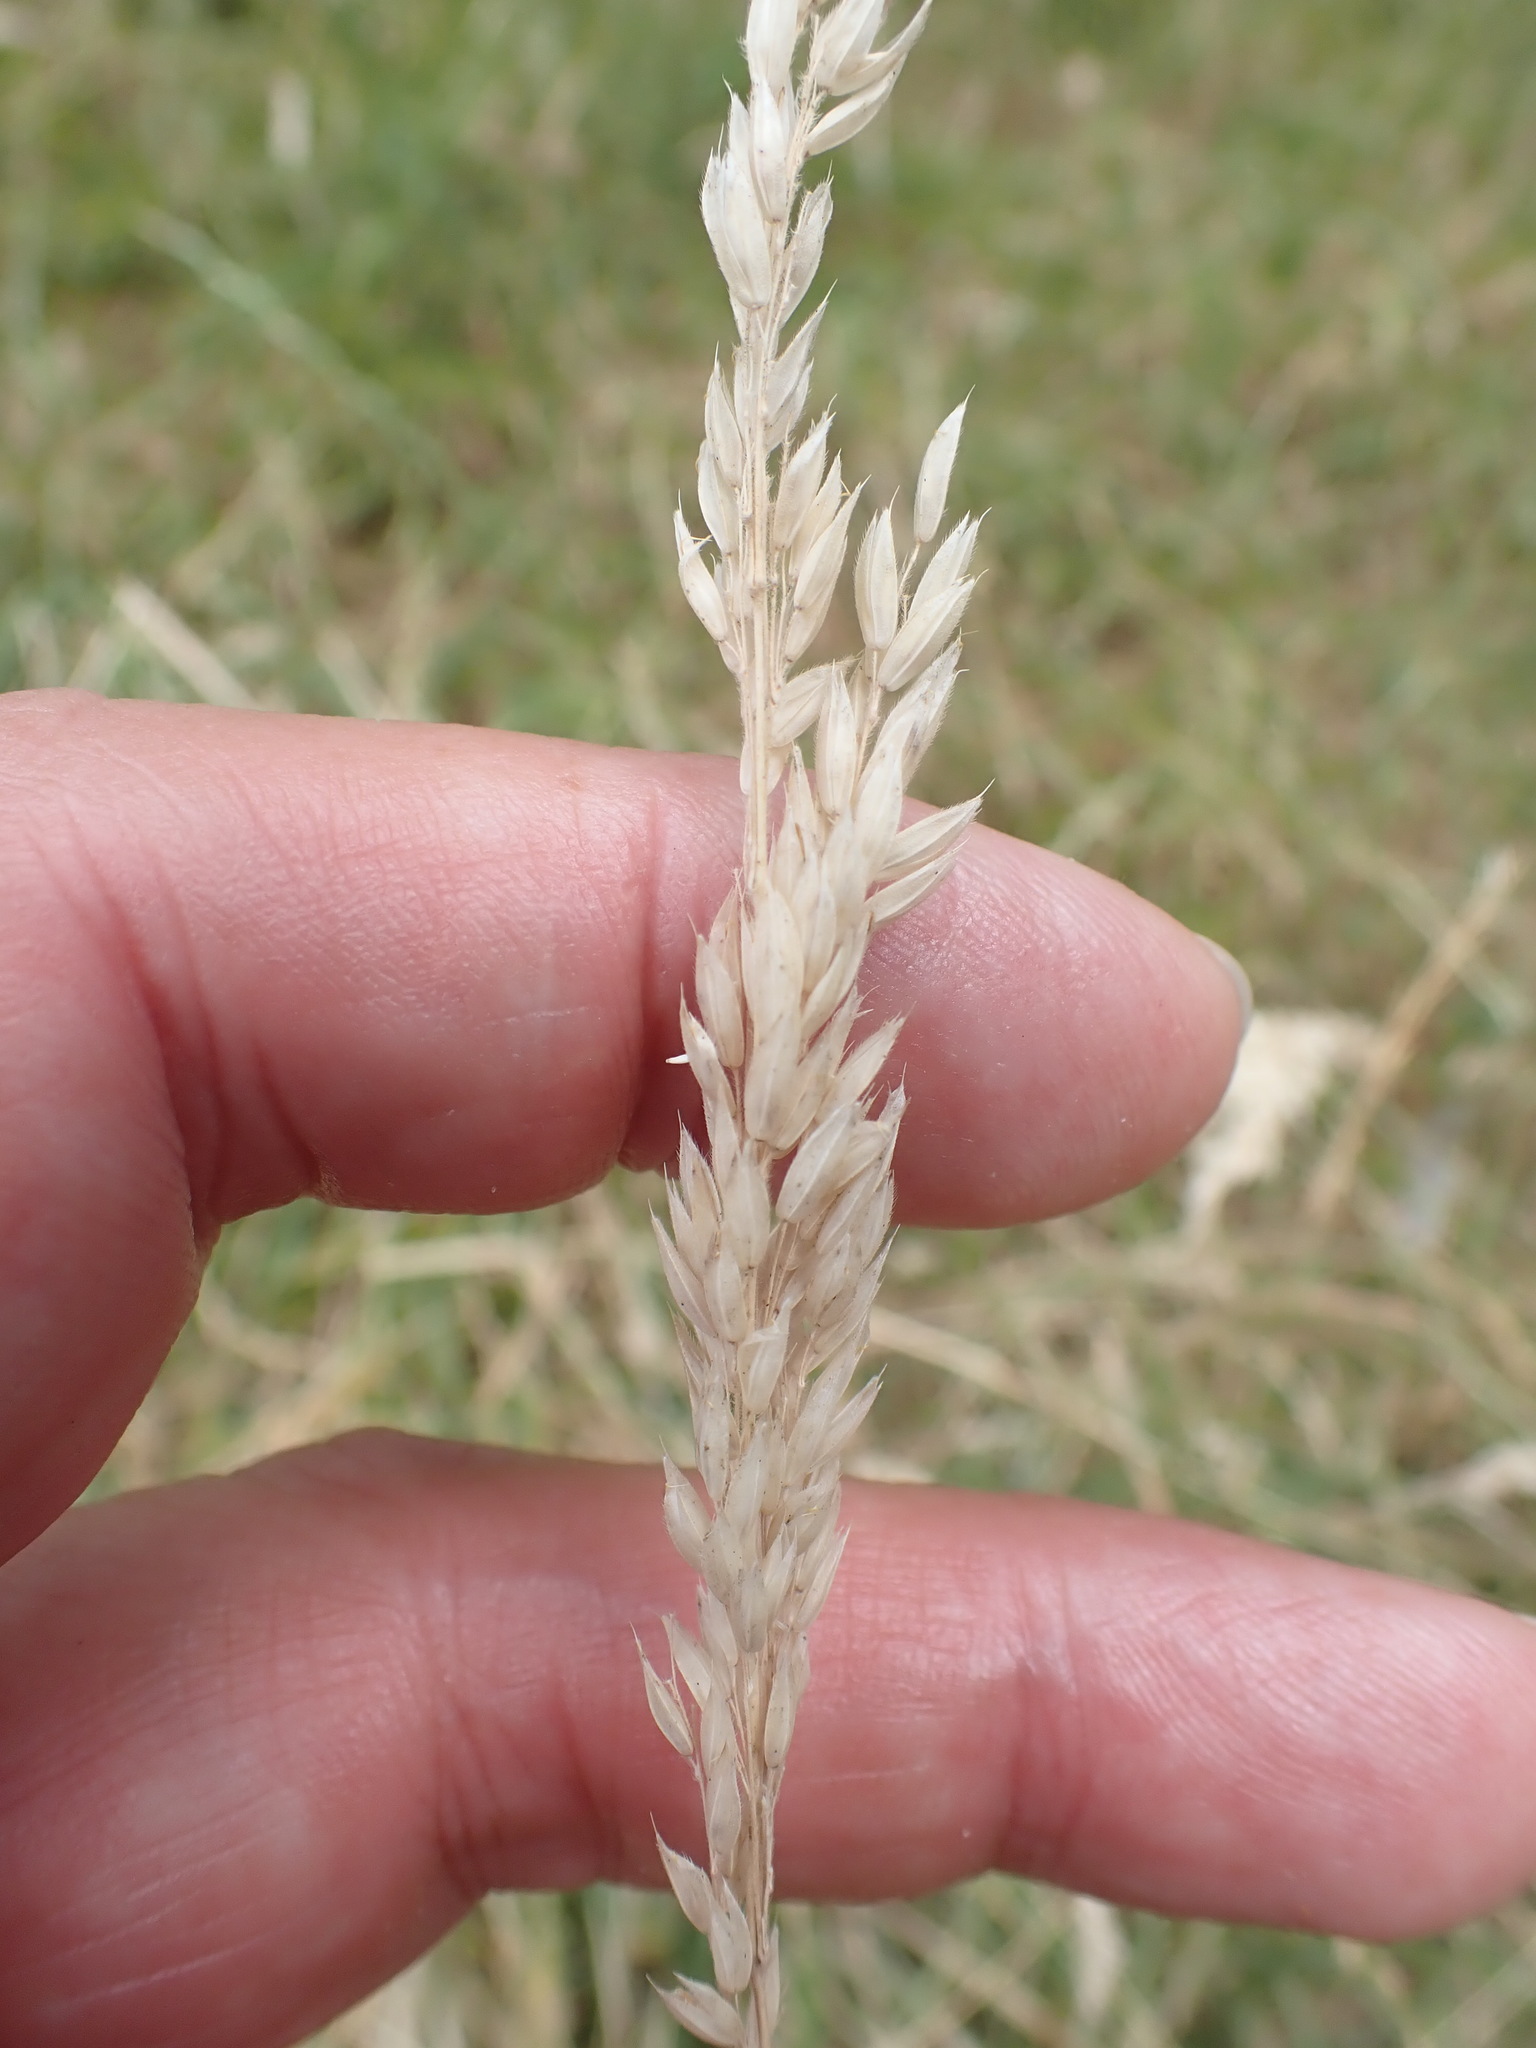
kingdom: Plantae
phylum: Tracheophyta
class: Liliopsida
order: Poales
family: Poaceae
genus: Holcus
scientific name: Holcus lanatus
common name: Yorkshire-fog
